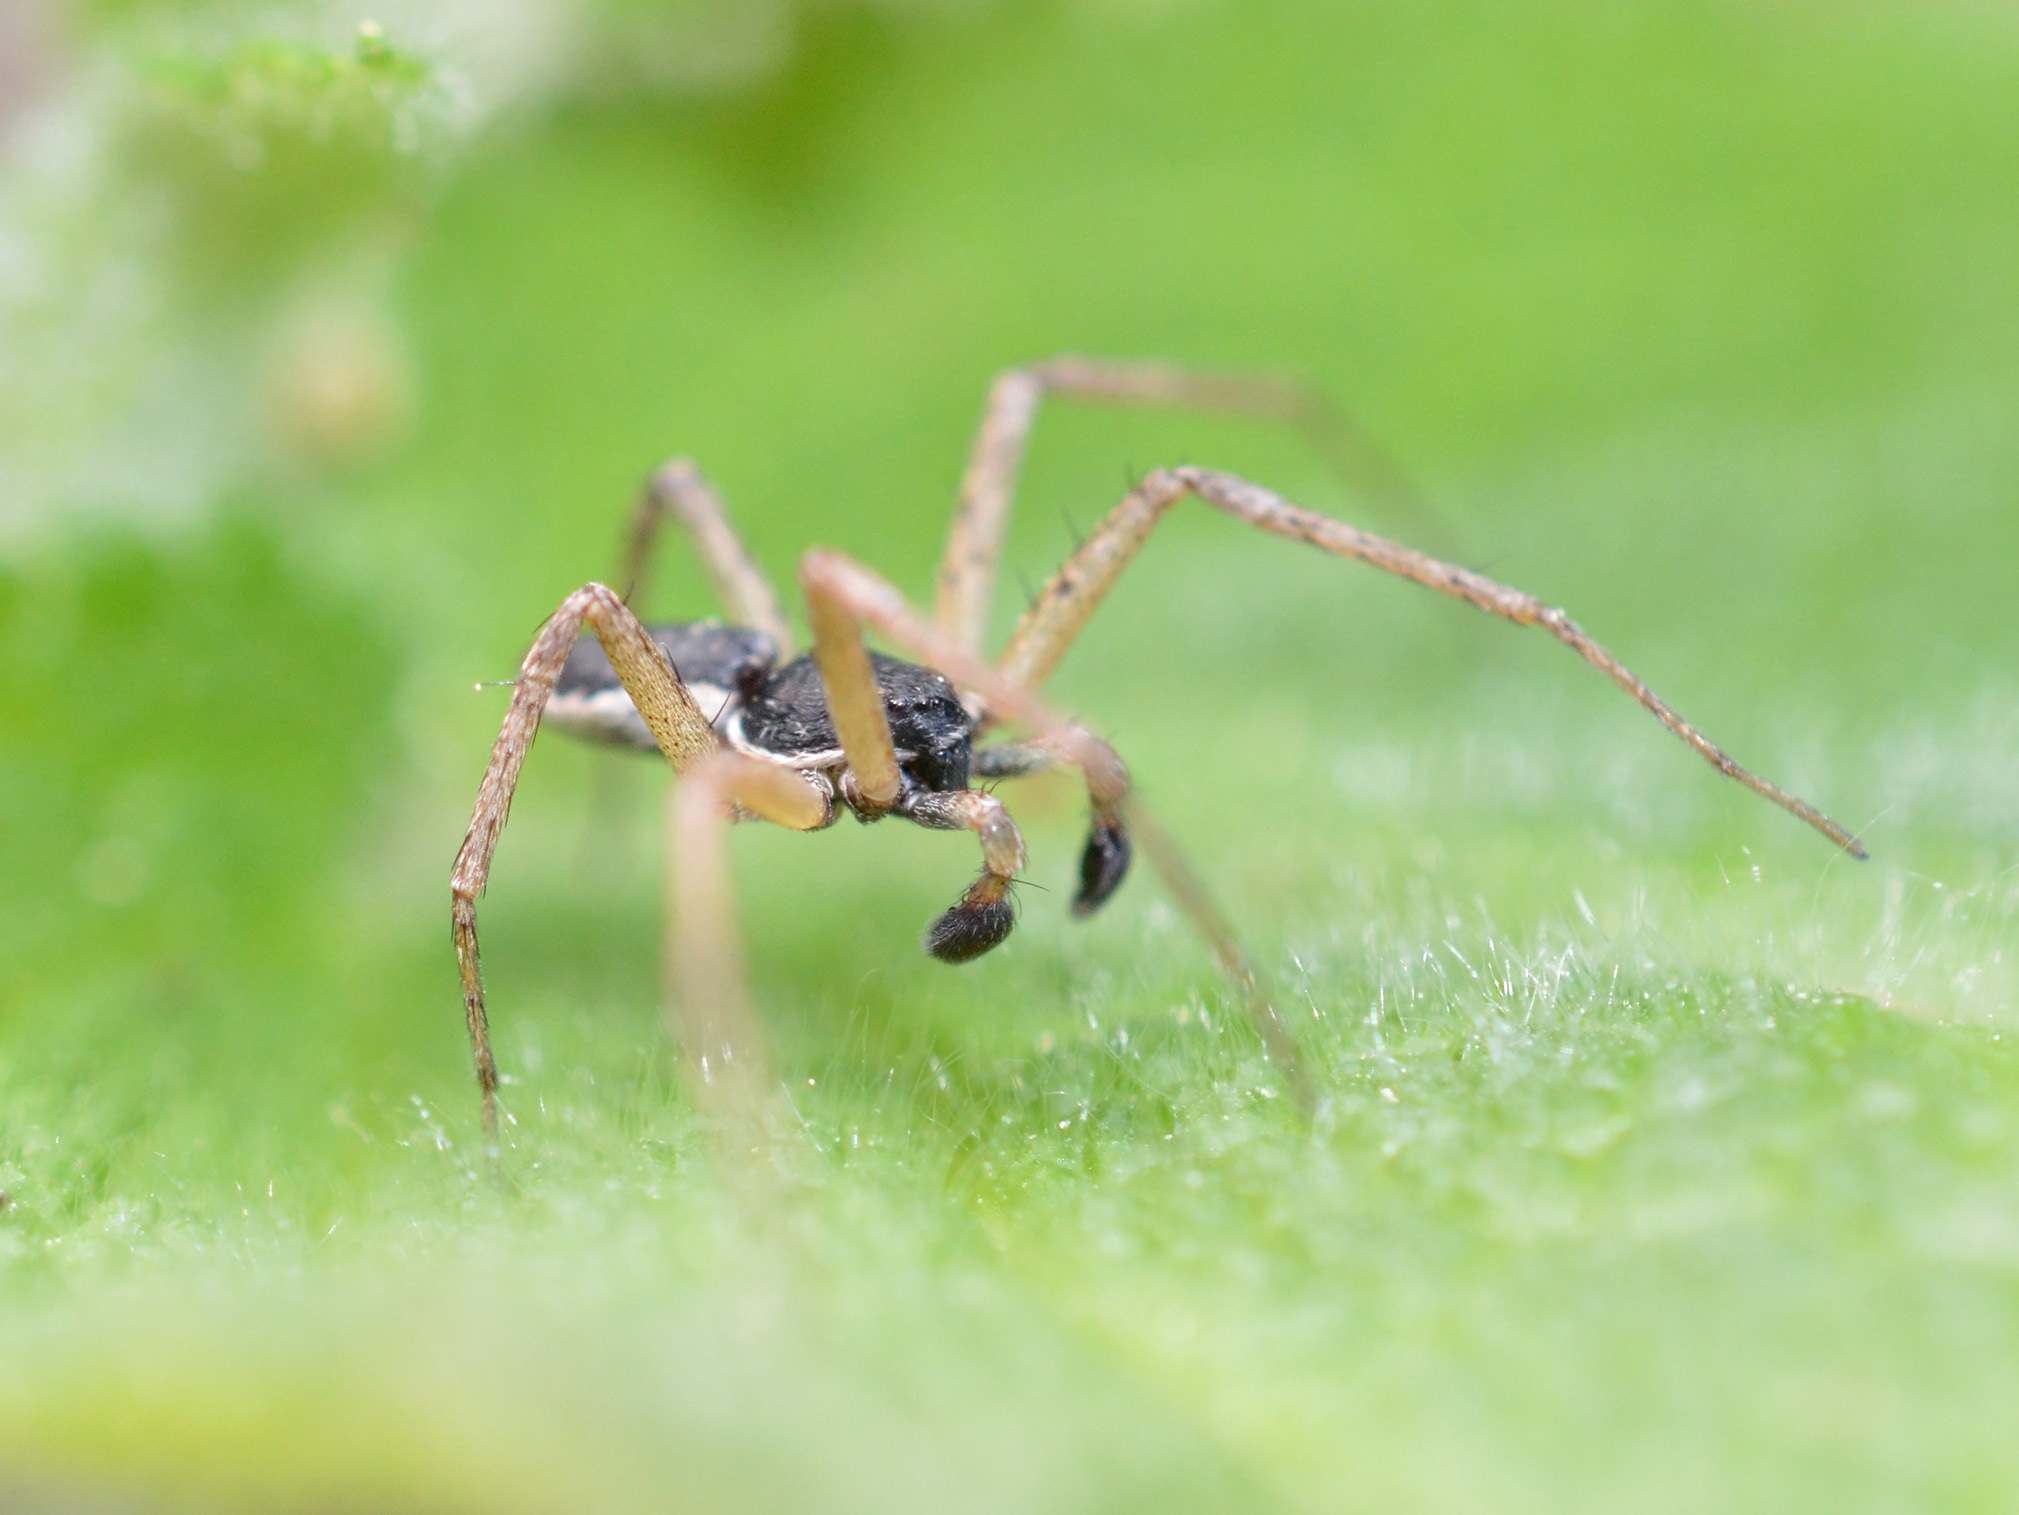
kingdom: Animalia
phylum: Arthropoda
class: Arachnida
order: Araneae
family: Philodromidae
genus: Philodromus
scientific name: Philodromus dispar
